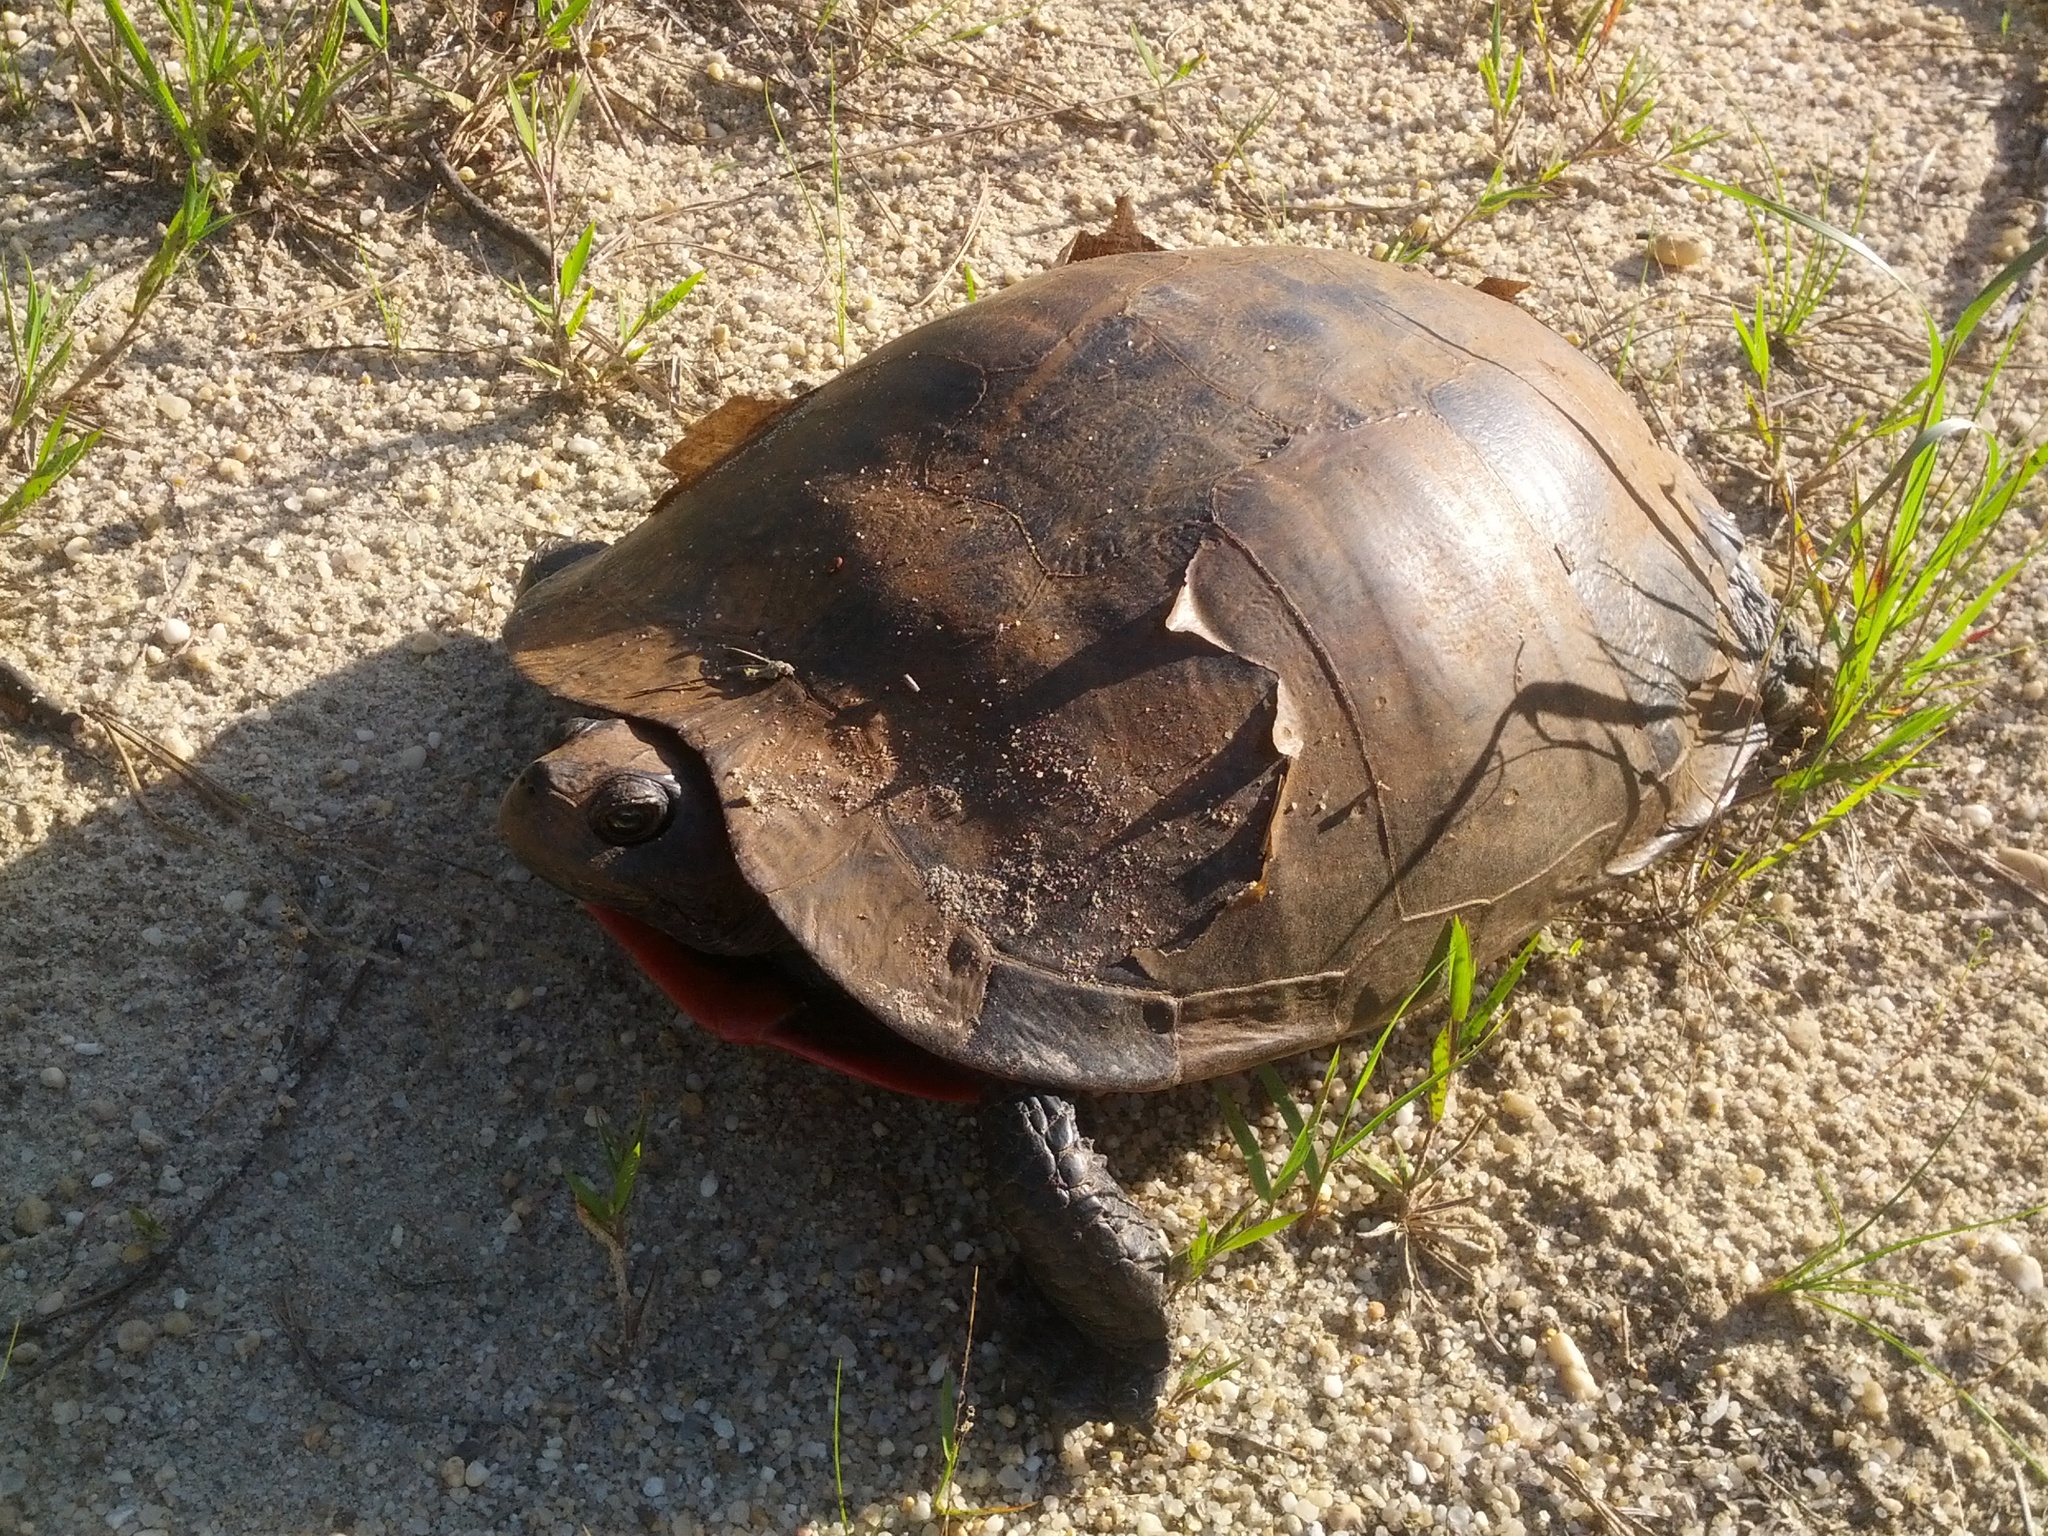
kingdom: Animalia
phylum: Chordata
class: Testudines
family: Emydidae
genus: Pseudemys
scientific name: Pseudemys rubriventris
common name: American red-bellied turtle
